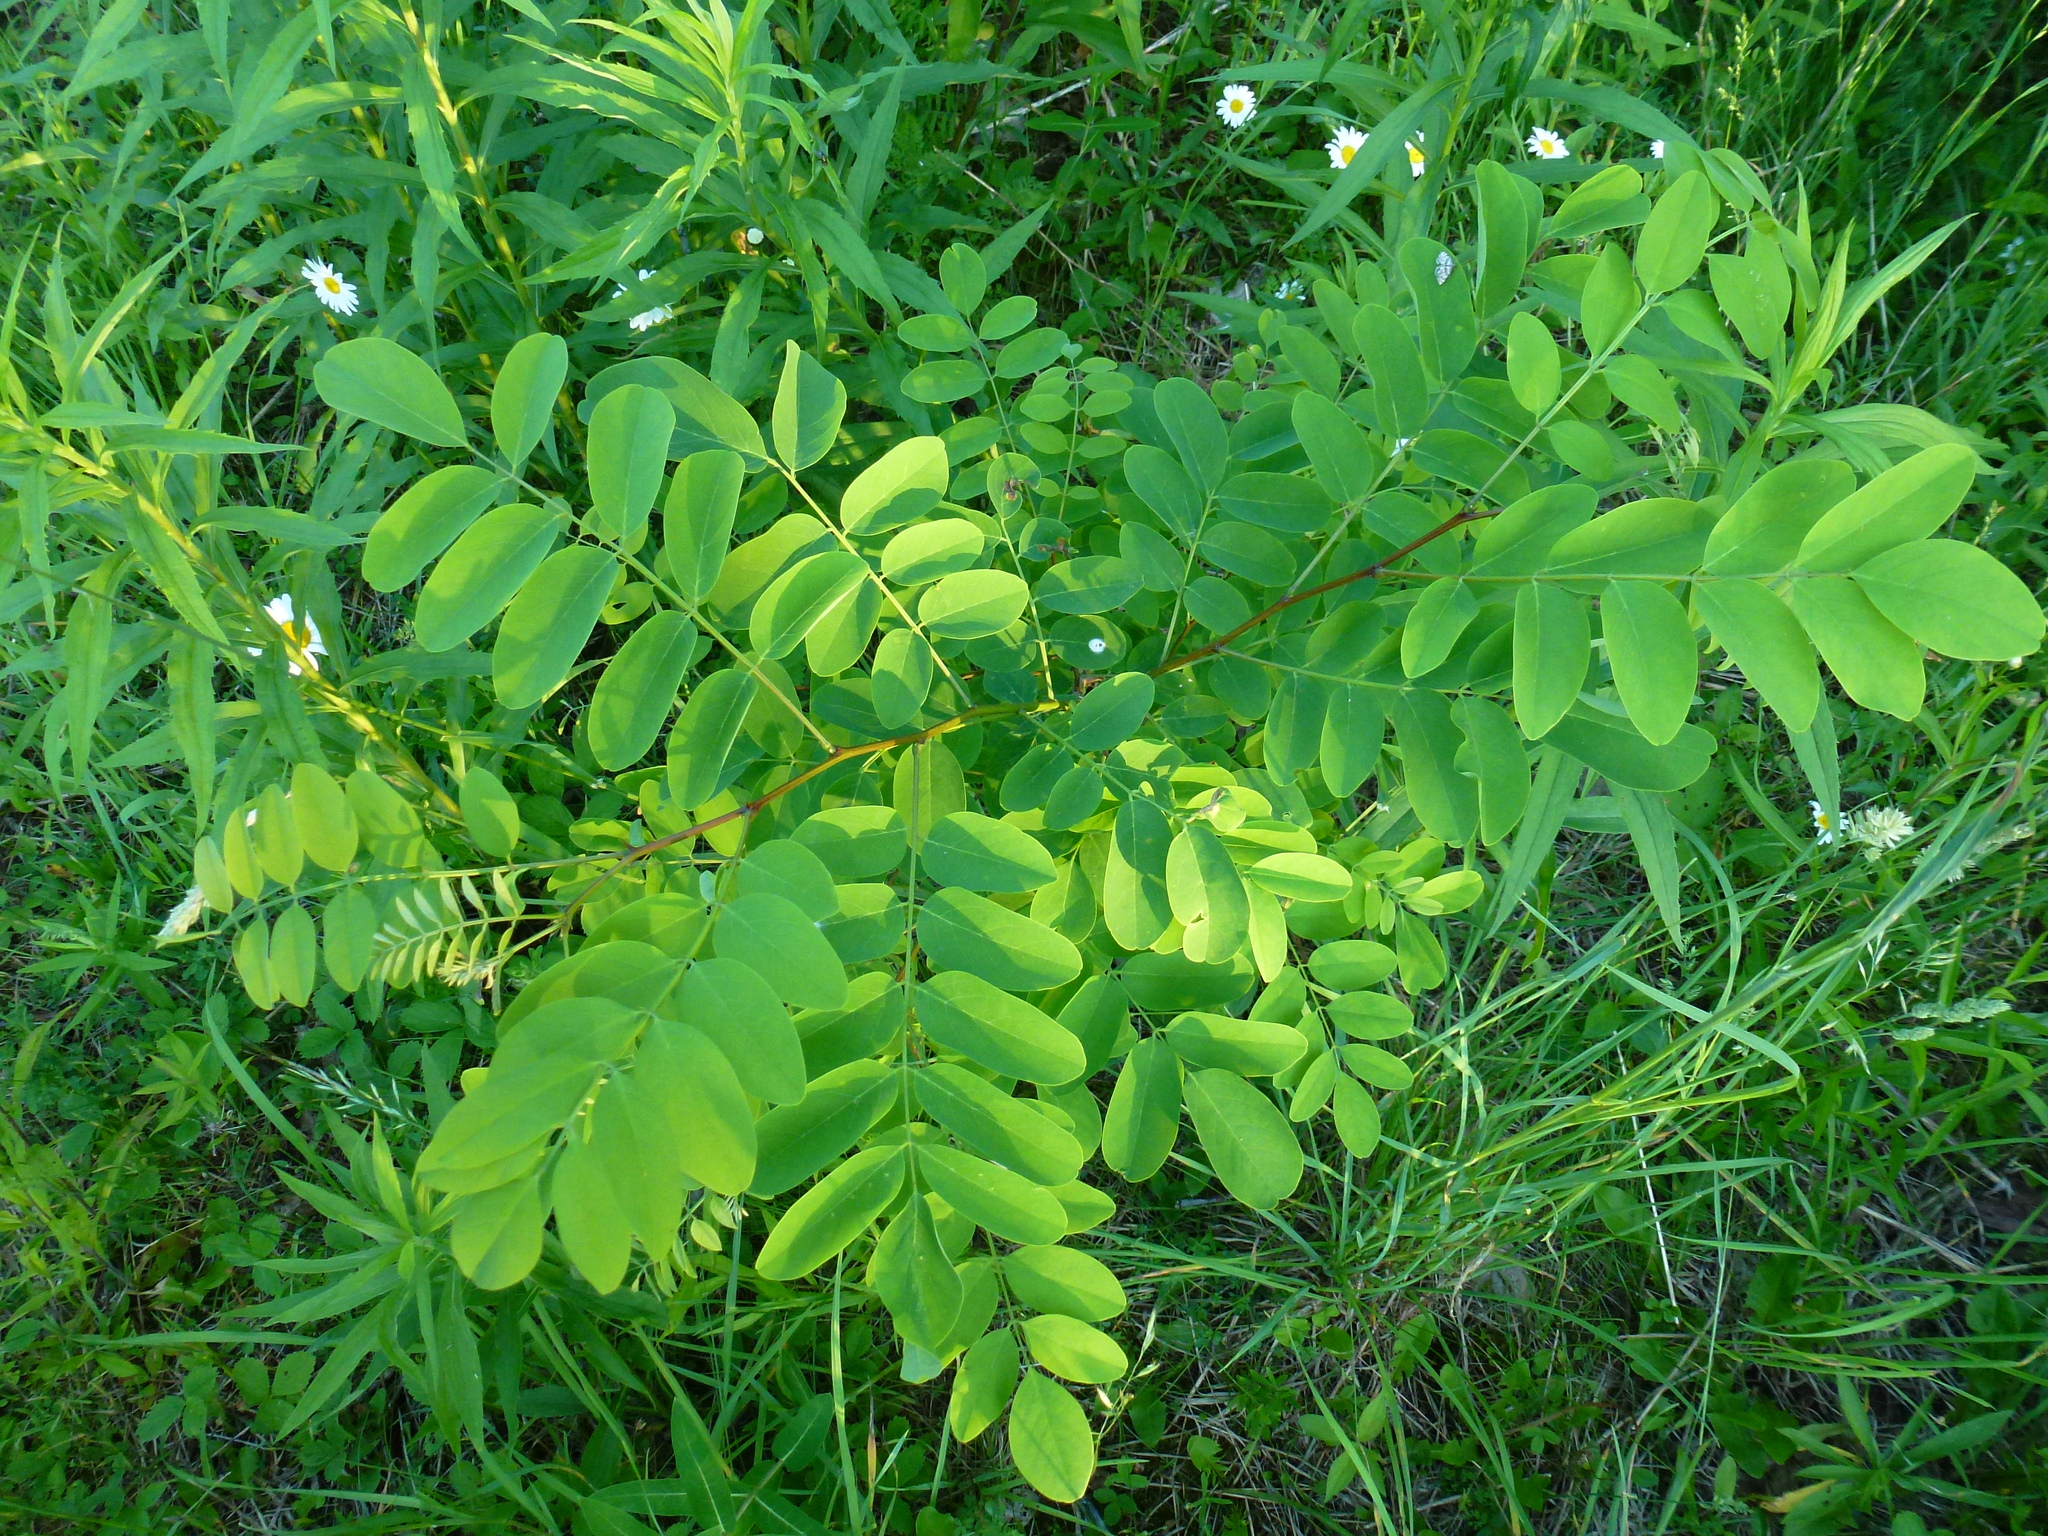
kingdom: Plantae
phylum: Tracheophyta
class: Magnoliopsida
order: Fabales
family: Fabaceae
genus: Robinia
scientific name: Robinia pseudoacacia
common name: Black locust
